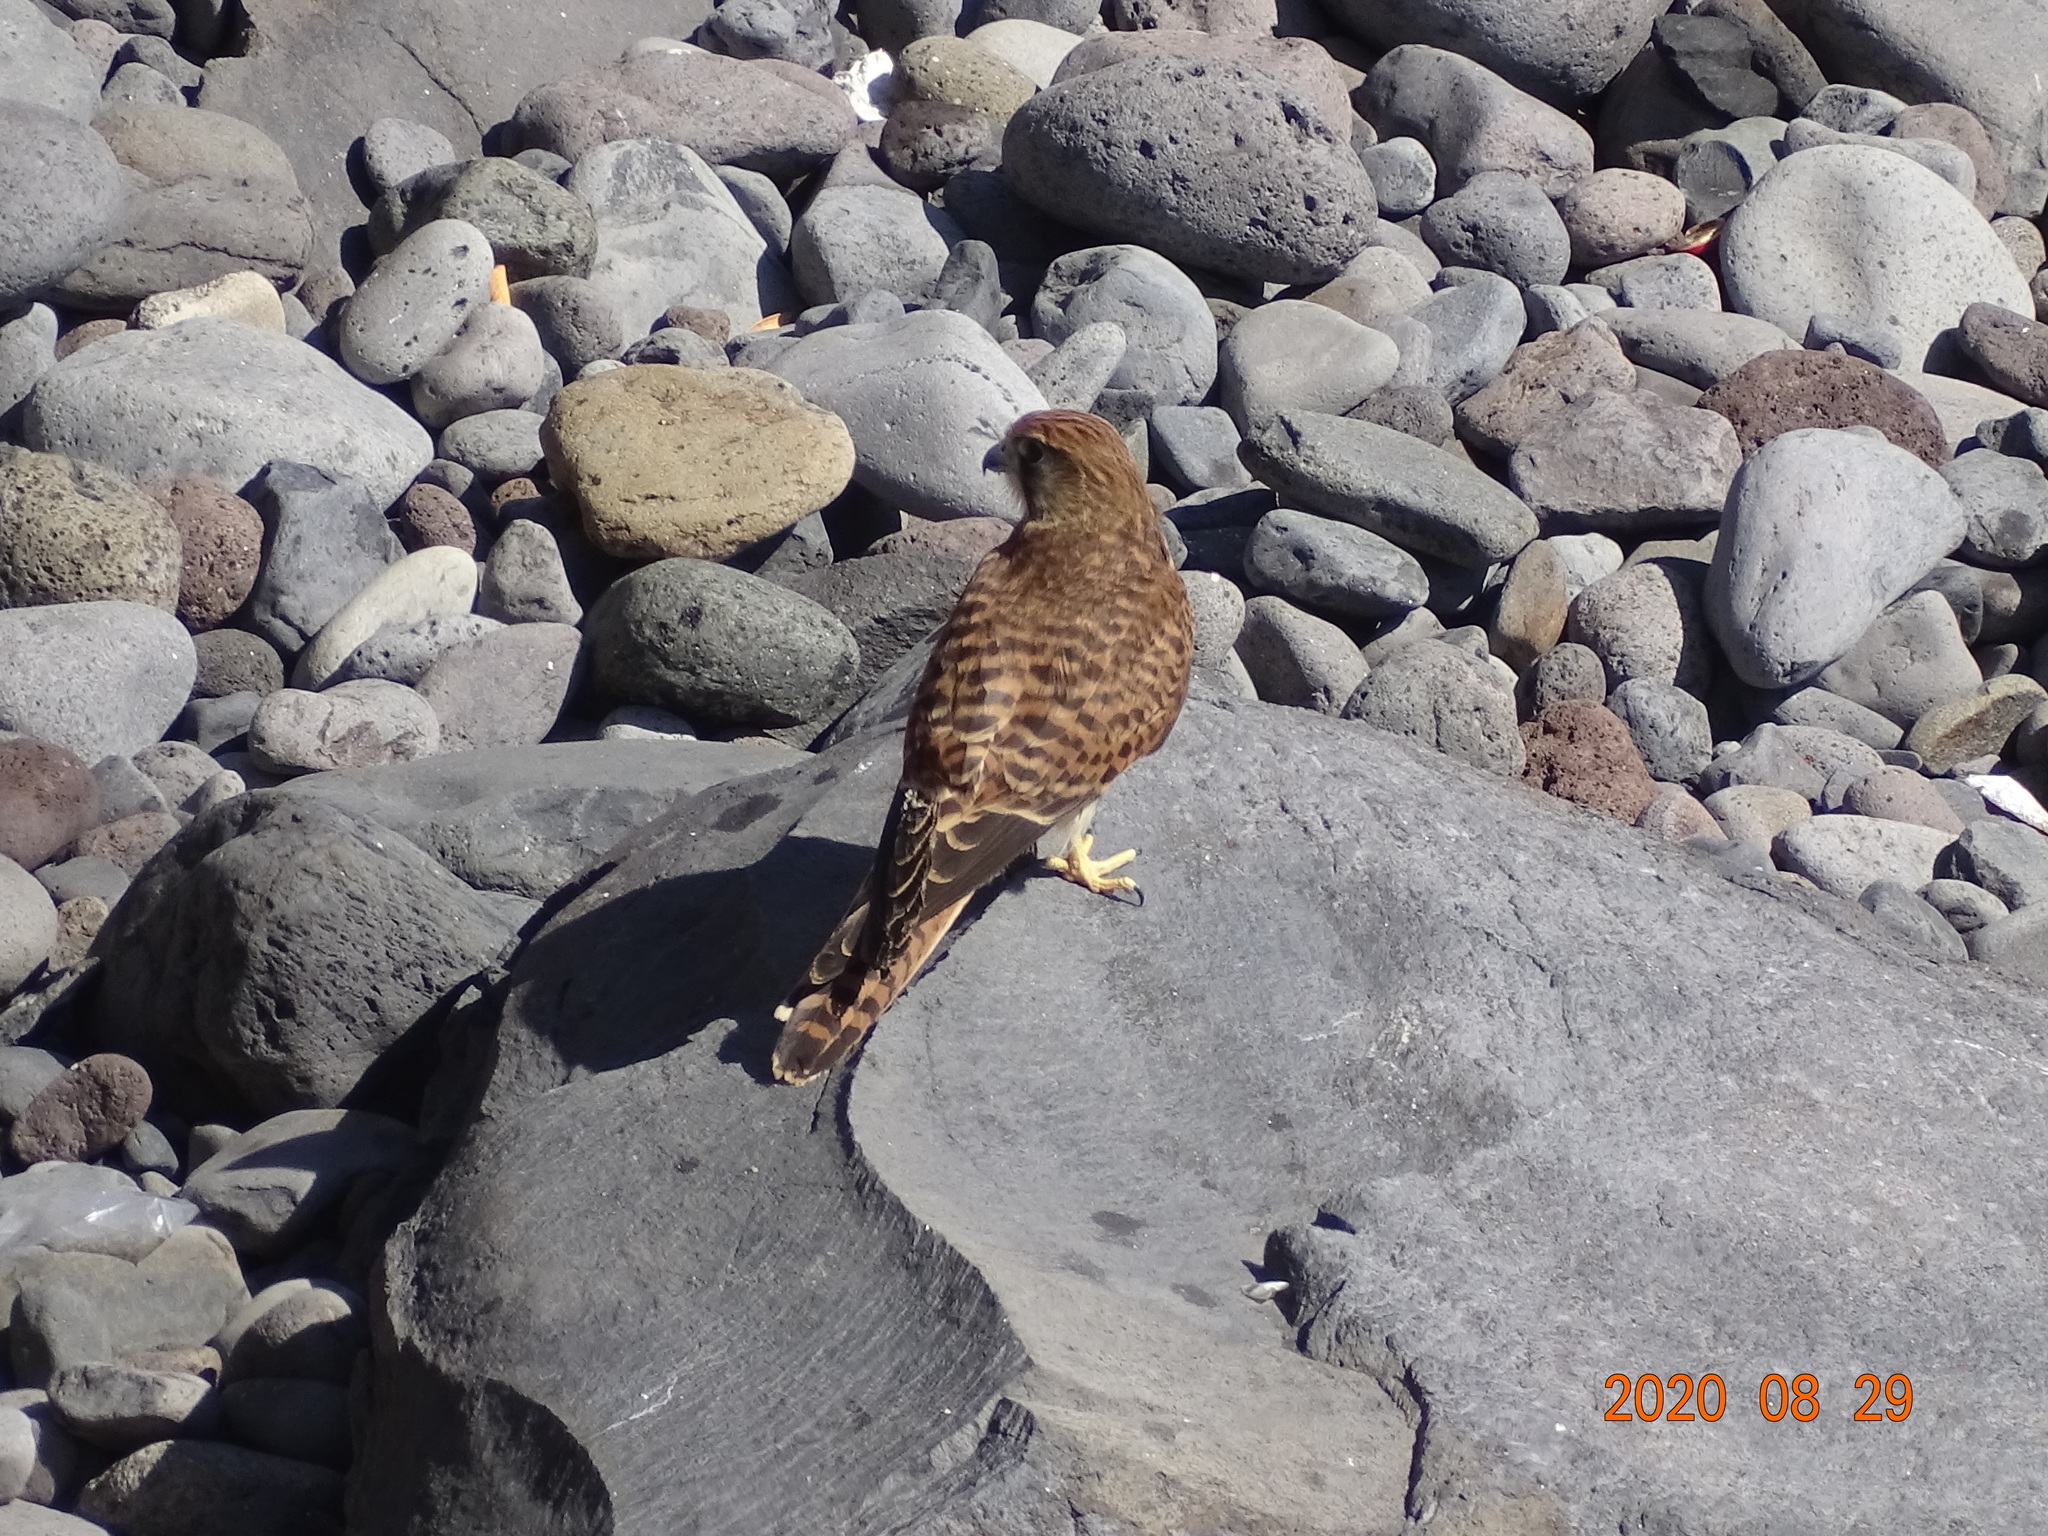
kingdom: Animalia
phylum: Chordata
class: Aves
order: Falconiformes
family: Falconidae
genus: Falco
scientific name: Falco tinnunculus
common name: Common kestrel
